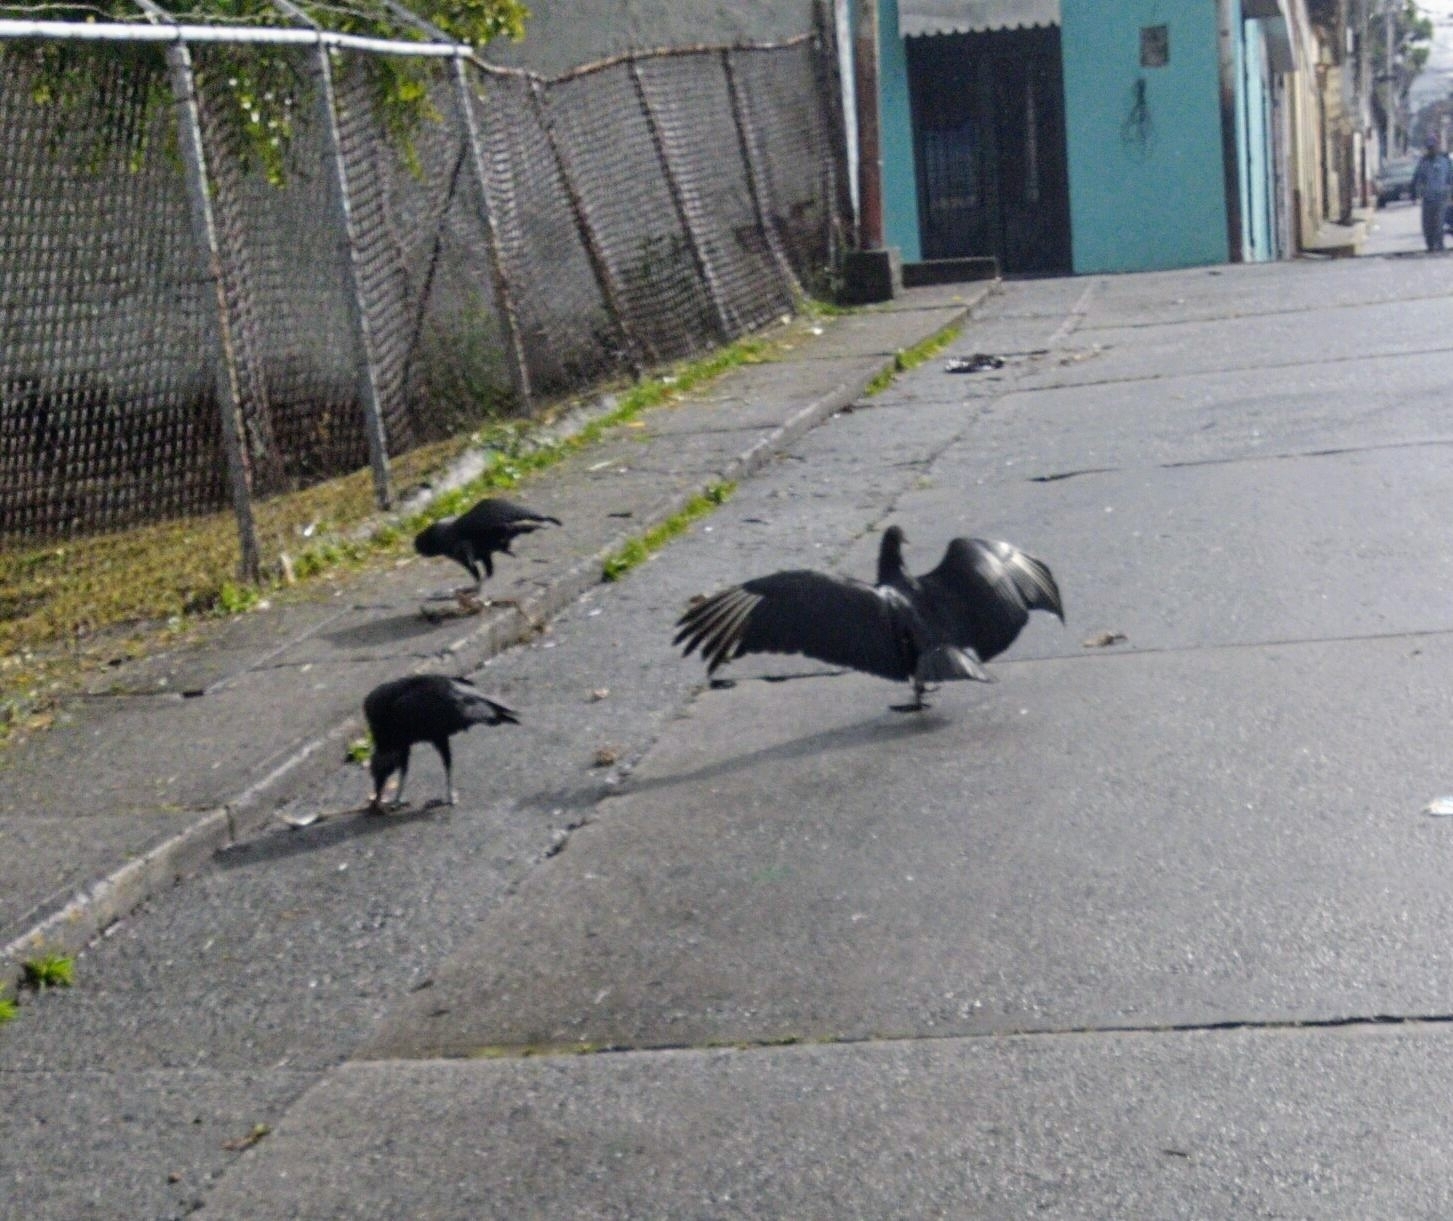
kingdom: Animalia
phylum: Chordata
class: Aves
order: Accipitriformes
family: Cathartidae
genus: Coragyps
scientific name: Coragyps atratus
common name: Black vulture
